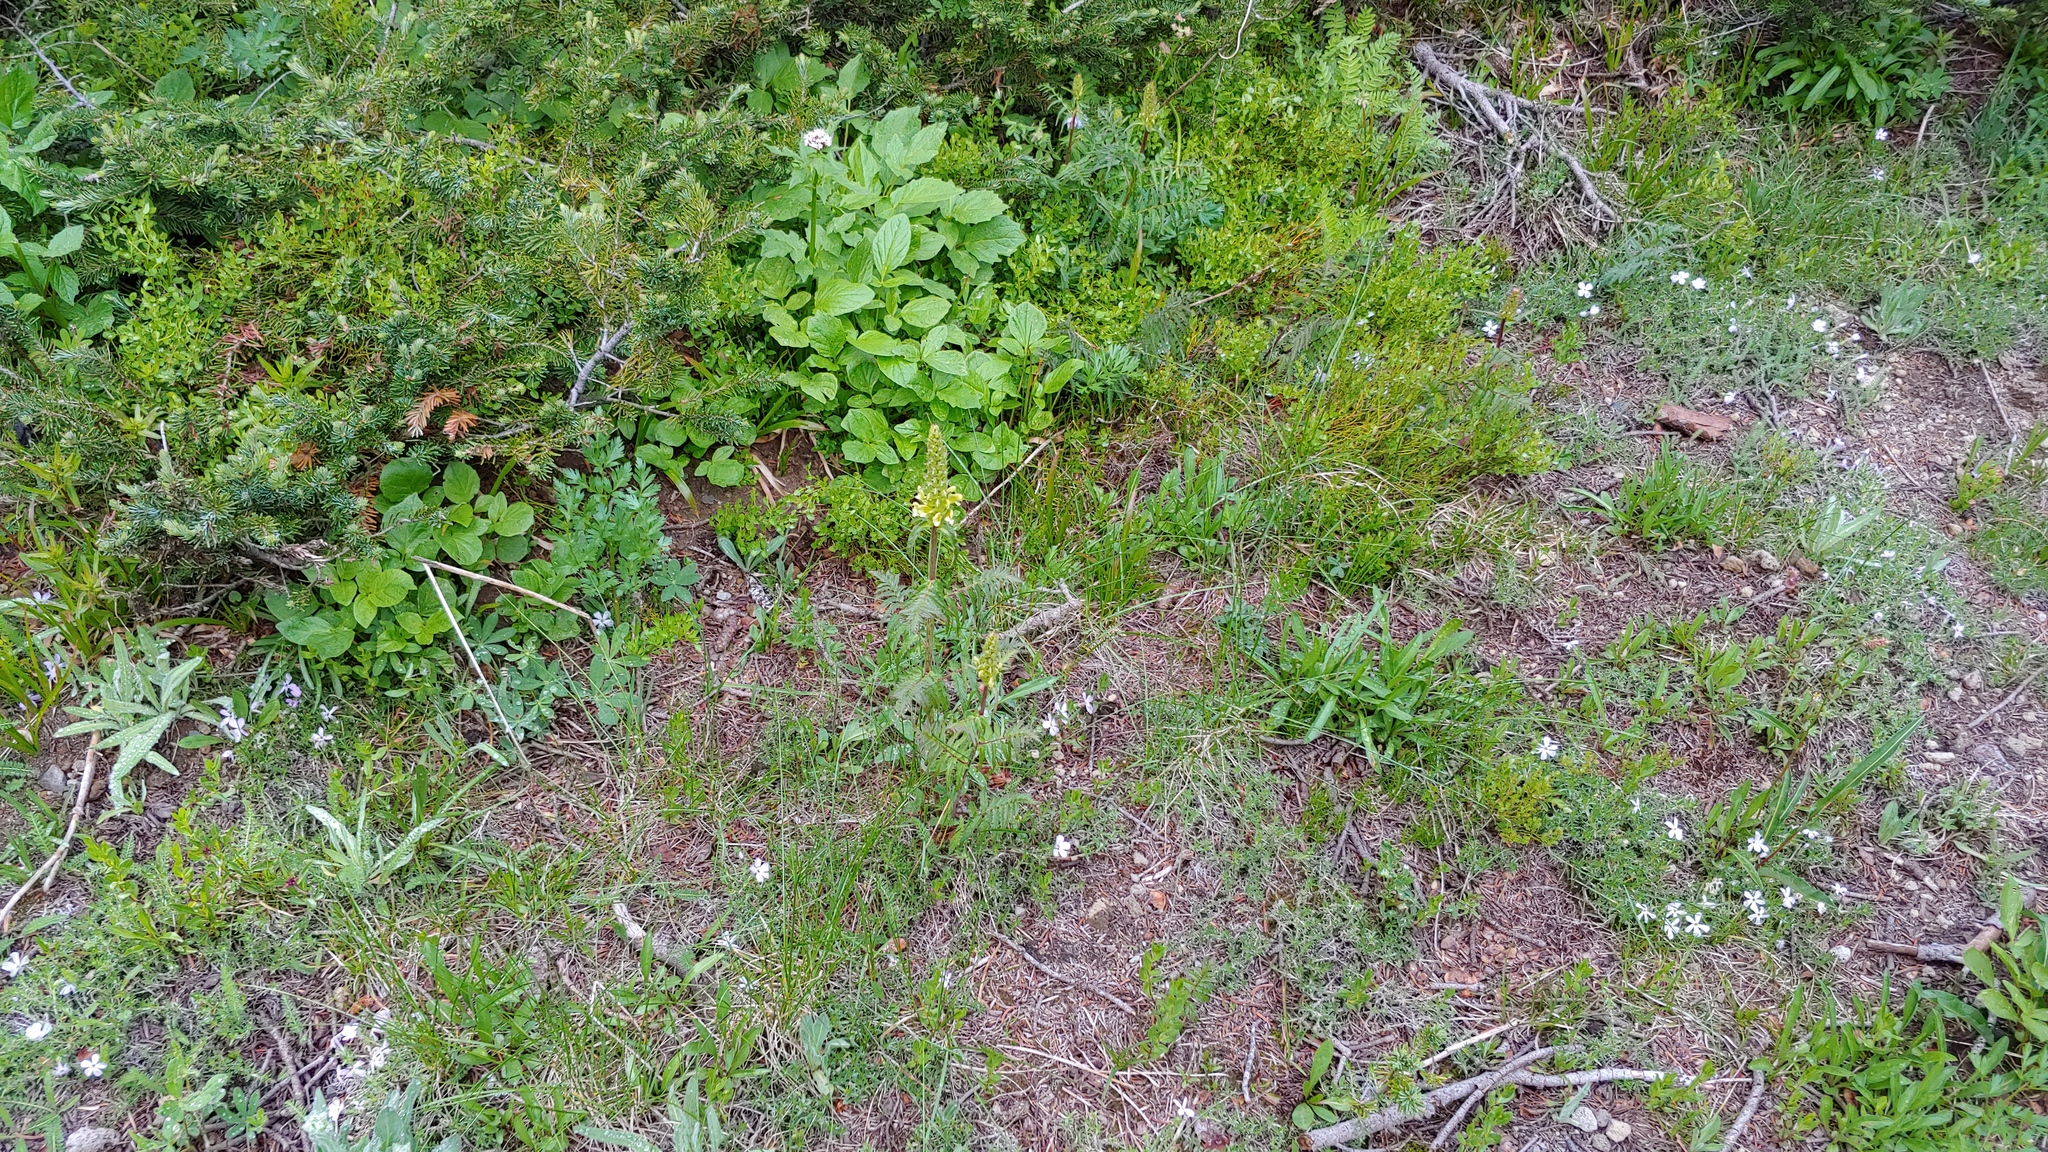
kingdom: Plantae
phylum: Tracheophyta
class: Magnoliopsida
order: Lamiales
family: Orobanchaceae
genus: Pedicularis
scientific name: Pedicularis bracteosa
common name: Bracted lousewort
